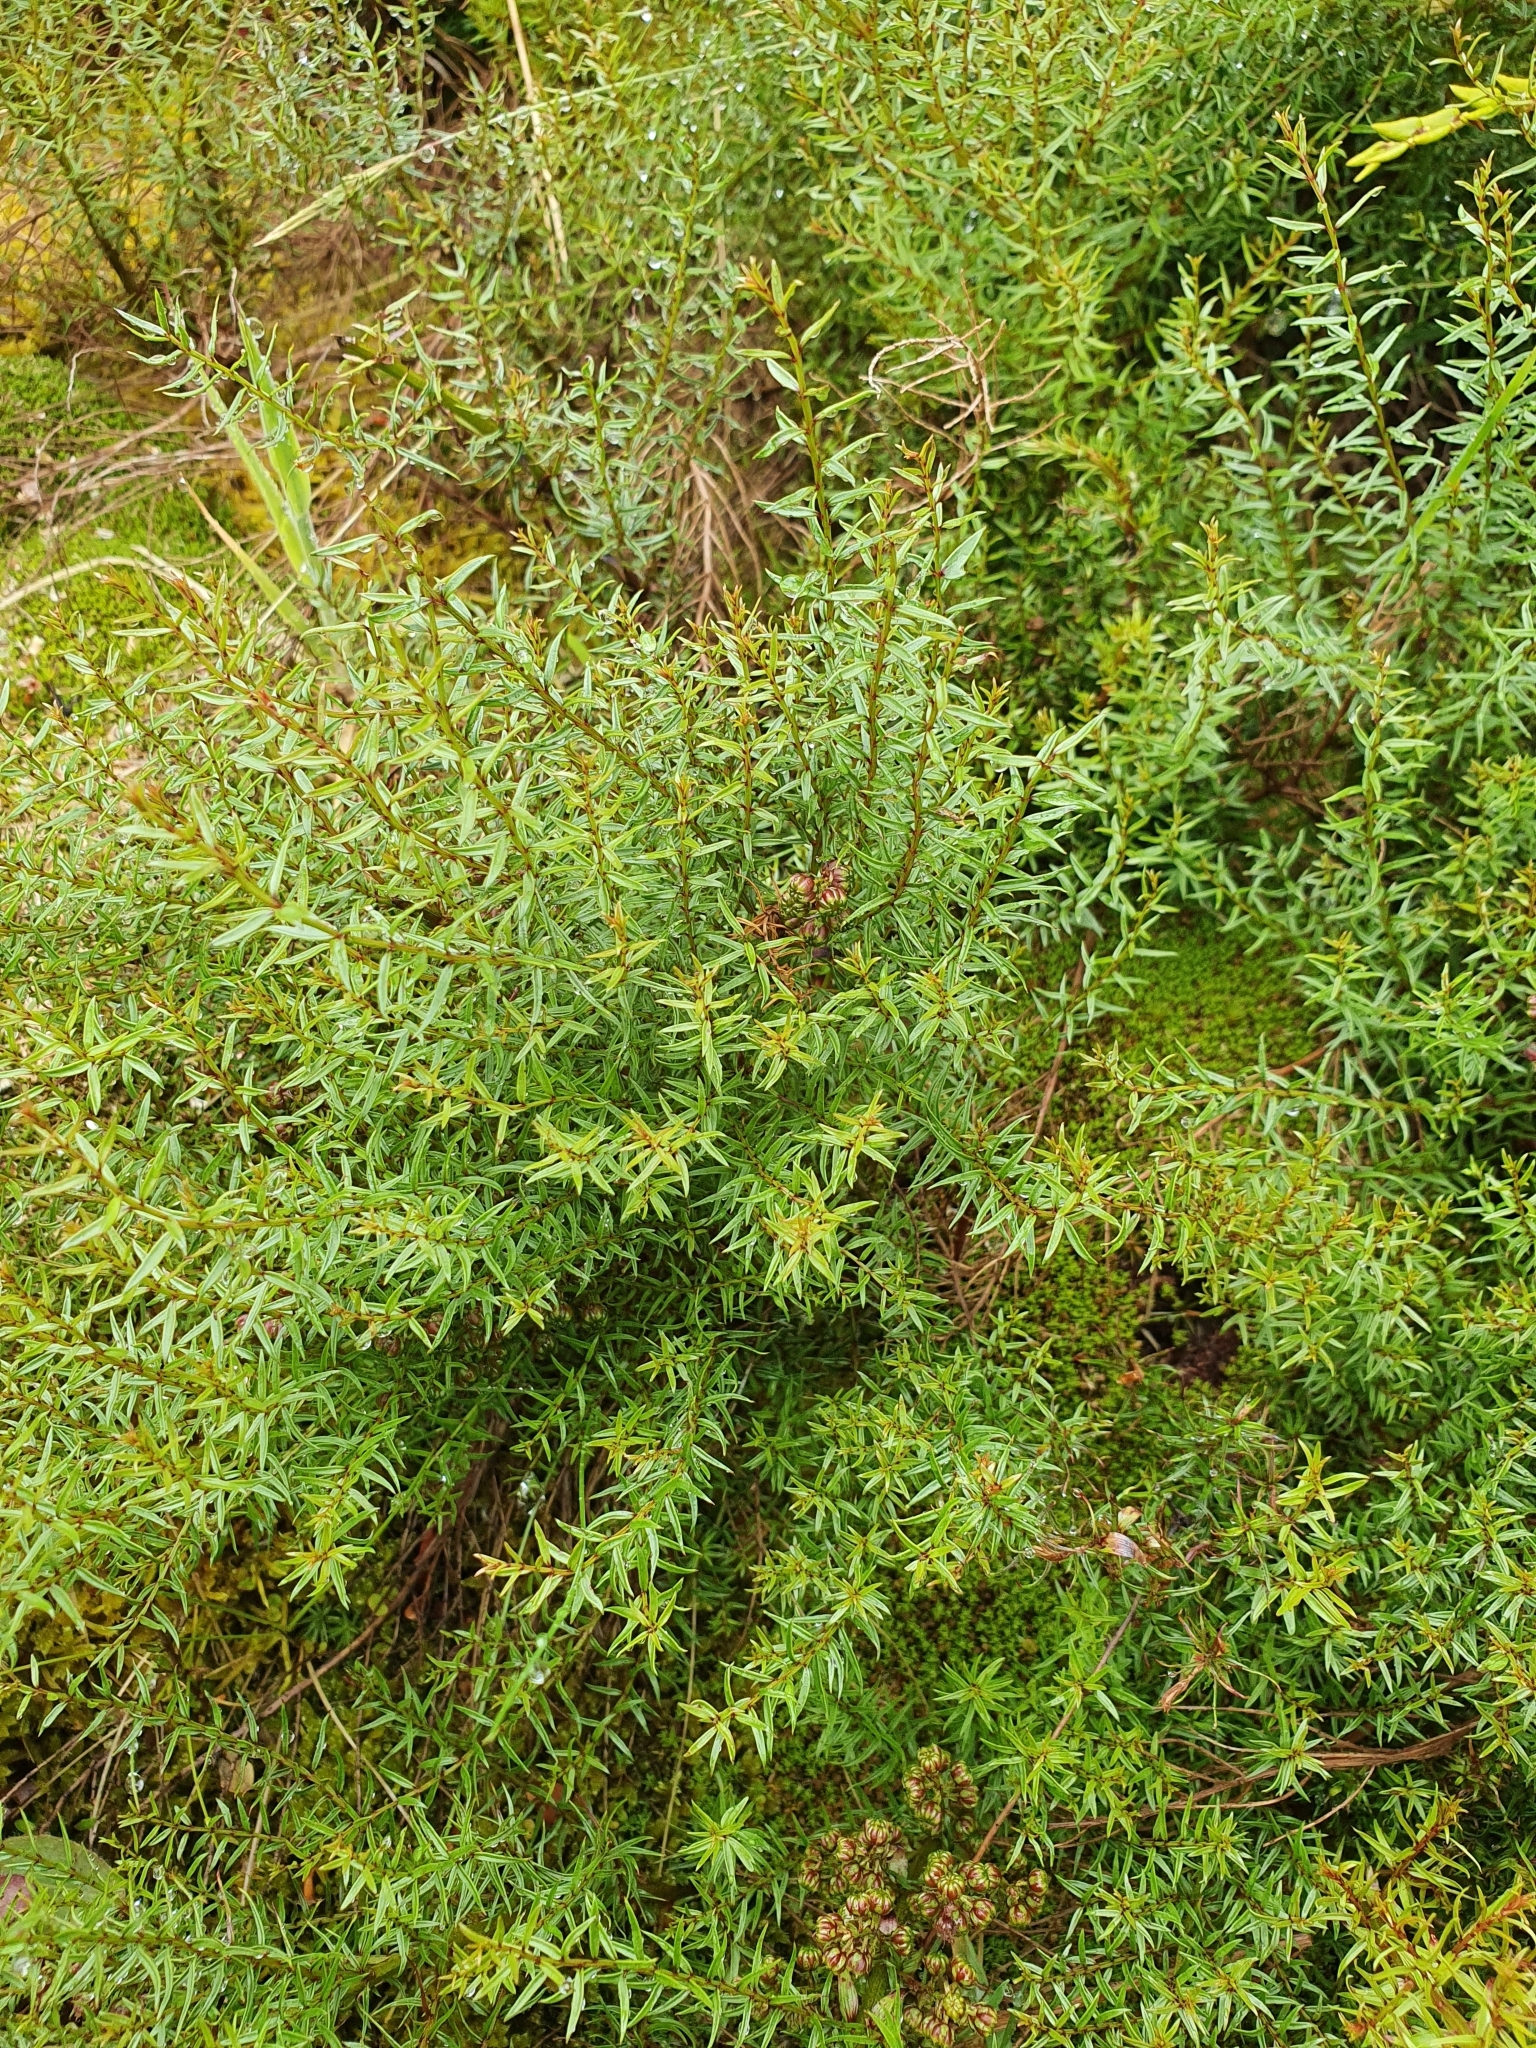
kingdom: Plantae
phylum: Tracheophyta
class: Magnoliopsida
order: Cucurbitales
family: Coriariaceae
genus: Coriaria
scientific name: Coriaria angustissima
